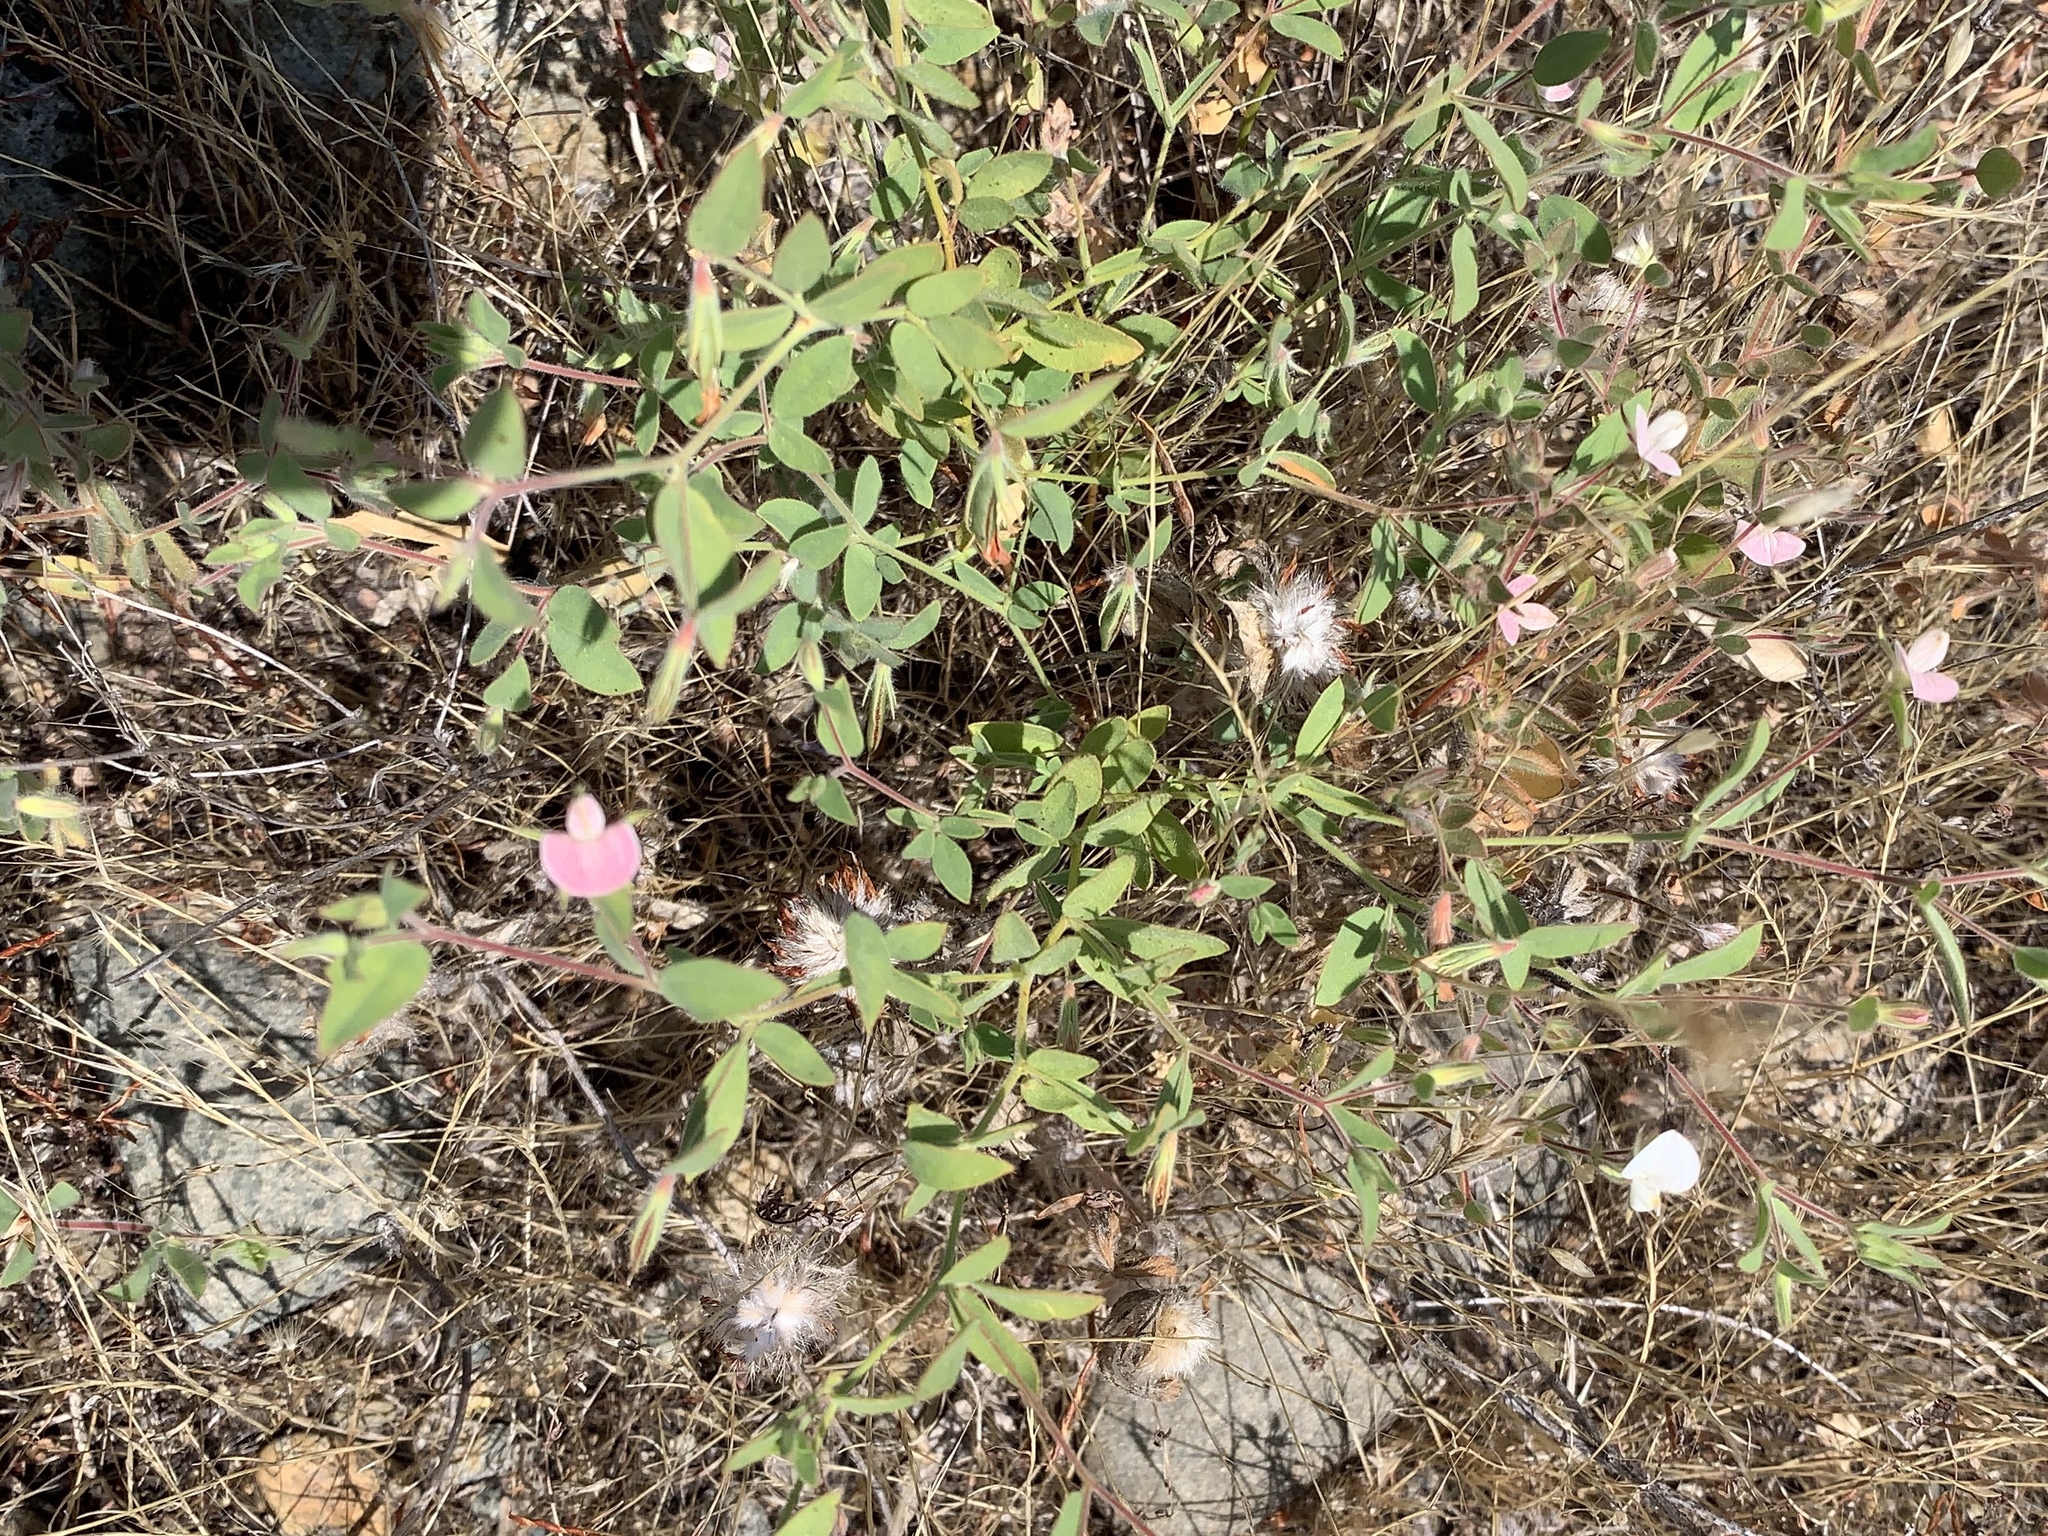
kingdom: Plantae
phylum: Tracheophyta
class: Magnoliopsida
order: Fabales
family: Fabaceae
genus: Acmispon
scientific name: Acmispon americanus
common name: American bird's-foot trefoil
